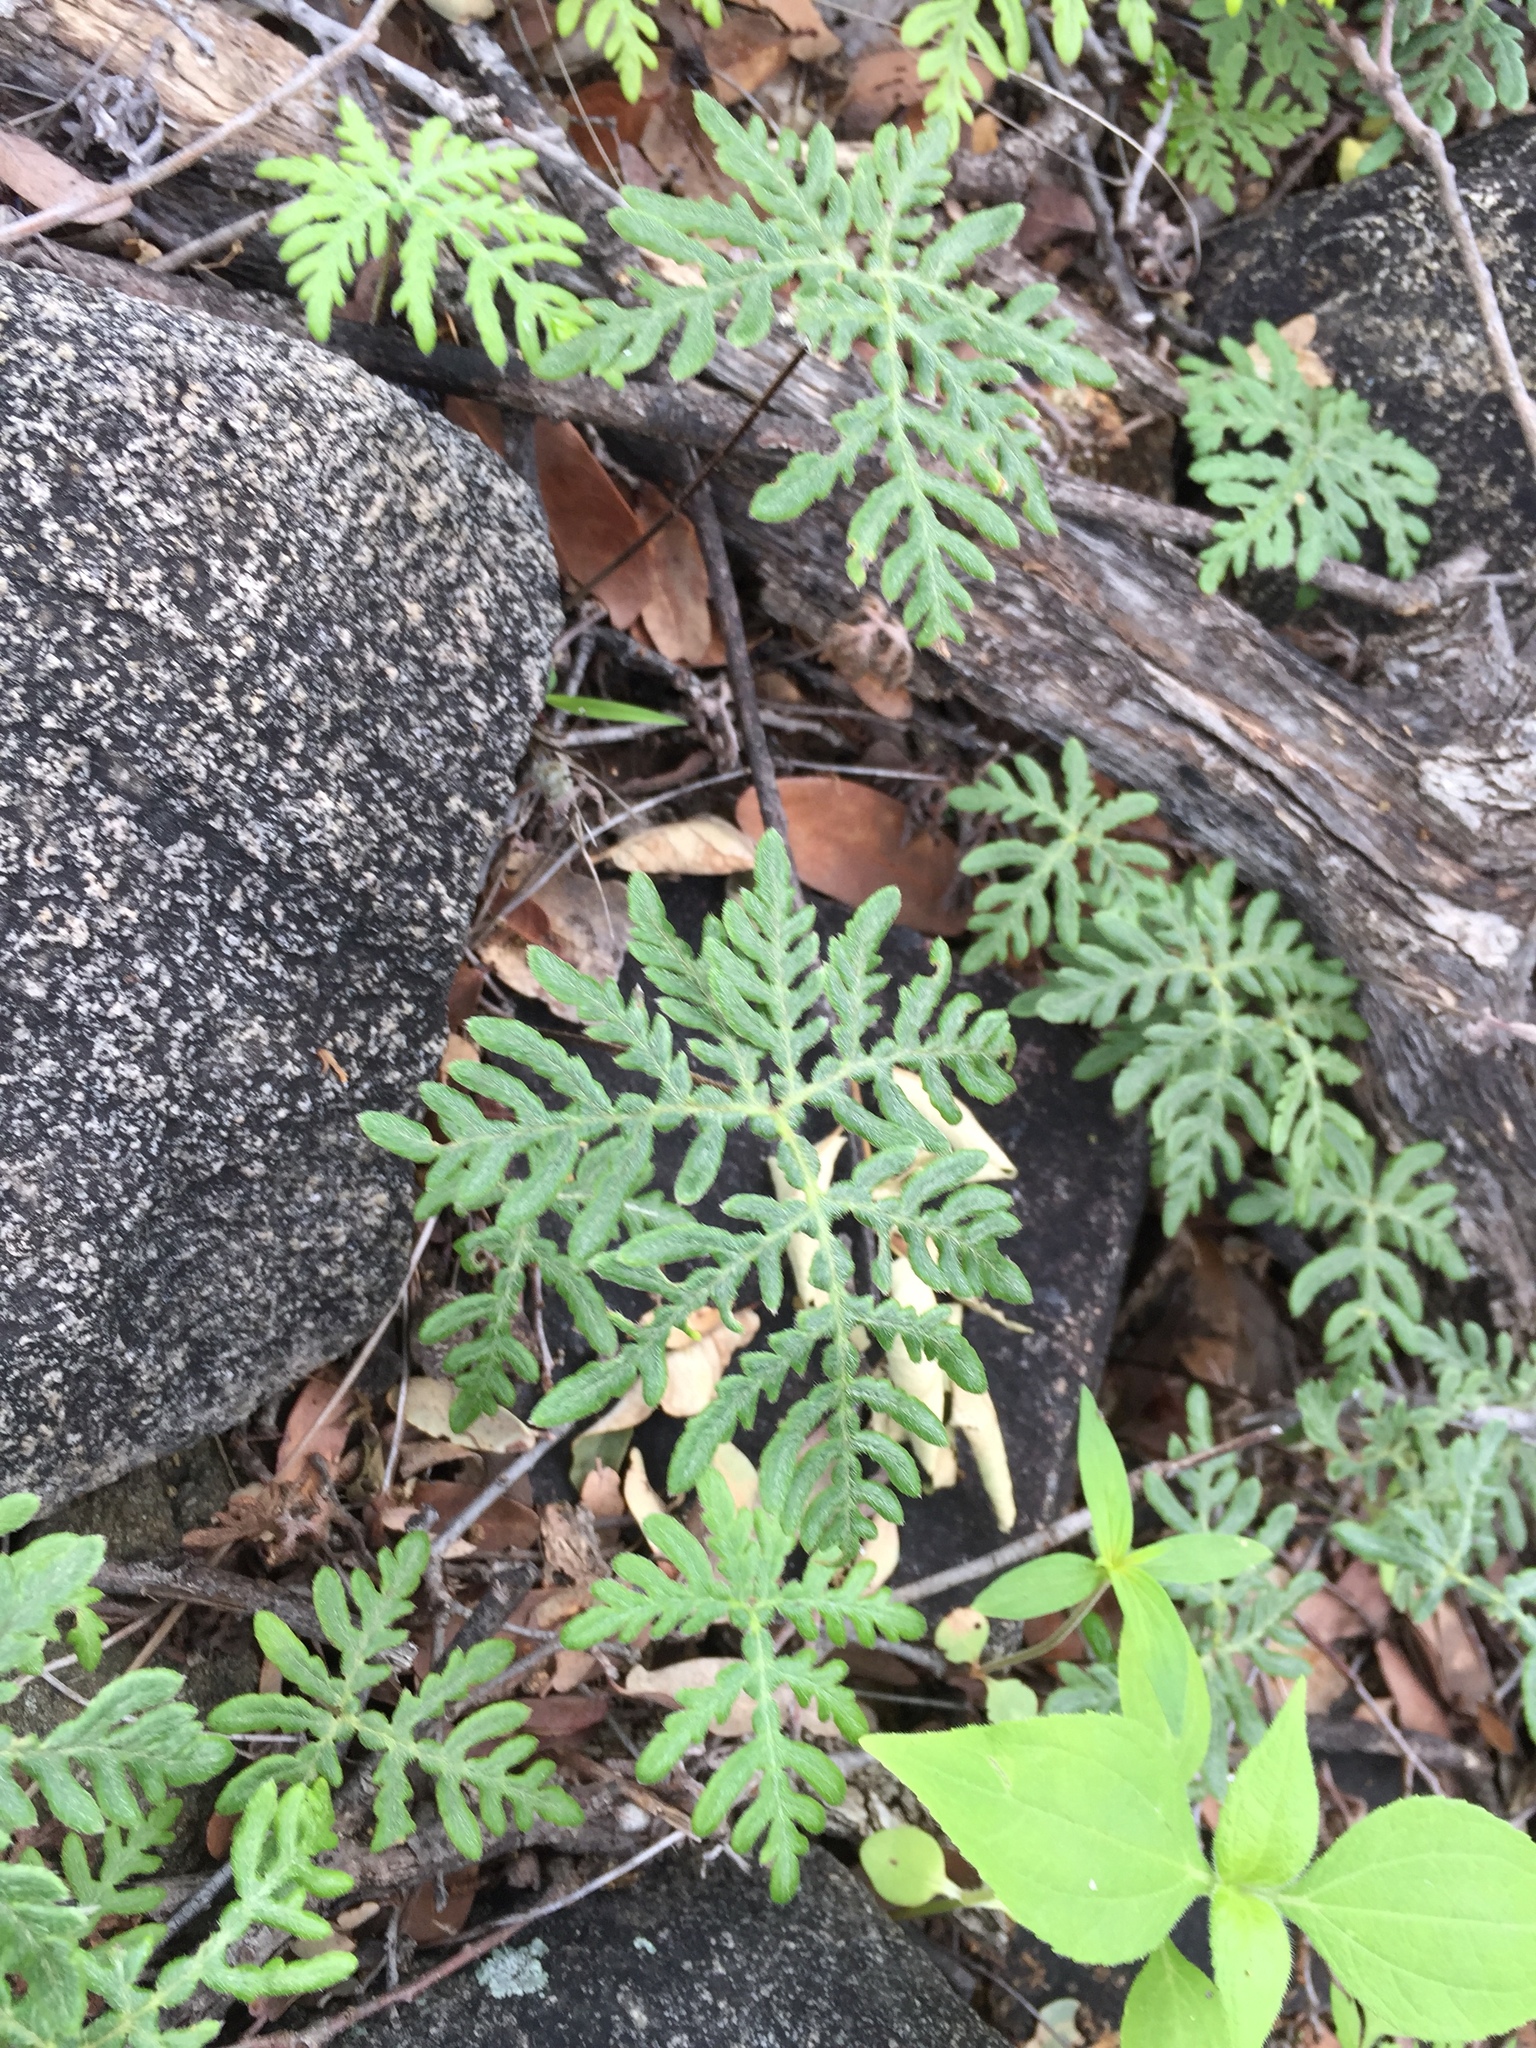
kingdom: Plantae
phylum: Tracheophyta
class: Polypodiopsida
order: Polypodiales
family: Pteridaceae
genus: Bommeria
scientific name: Bommeria hispida
